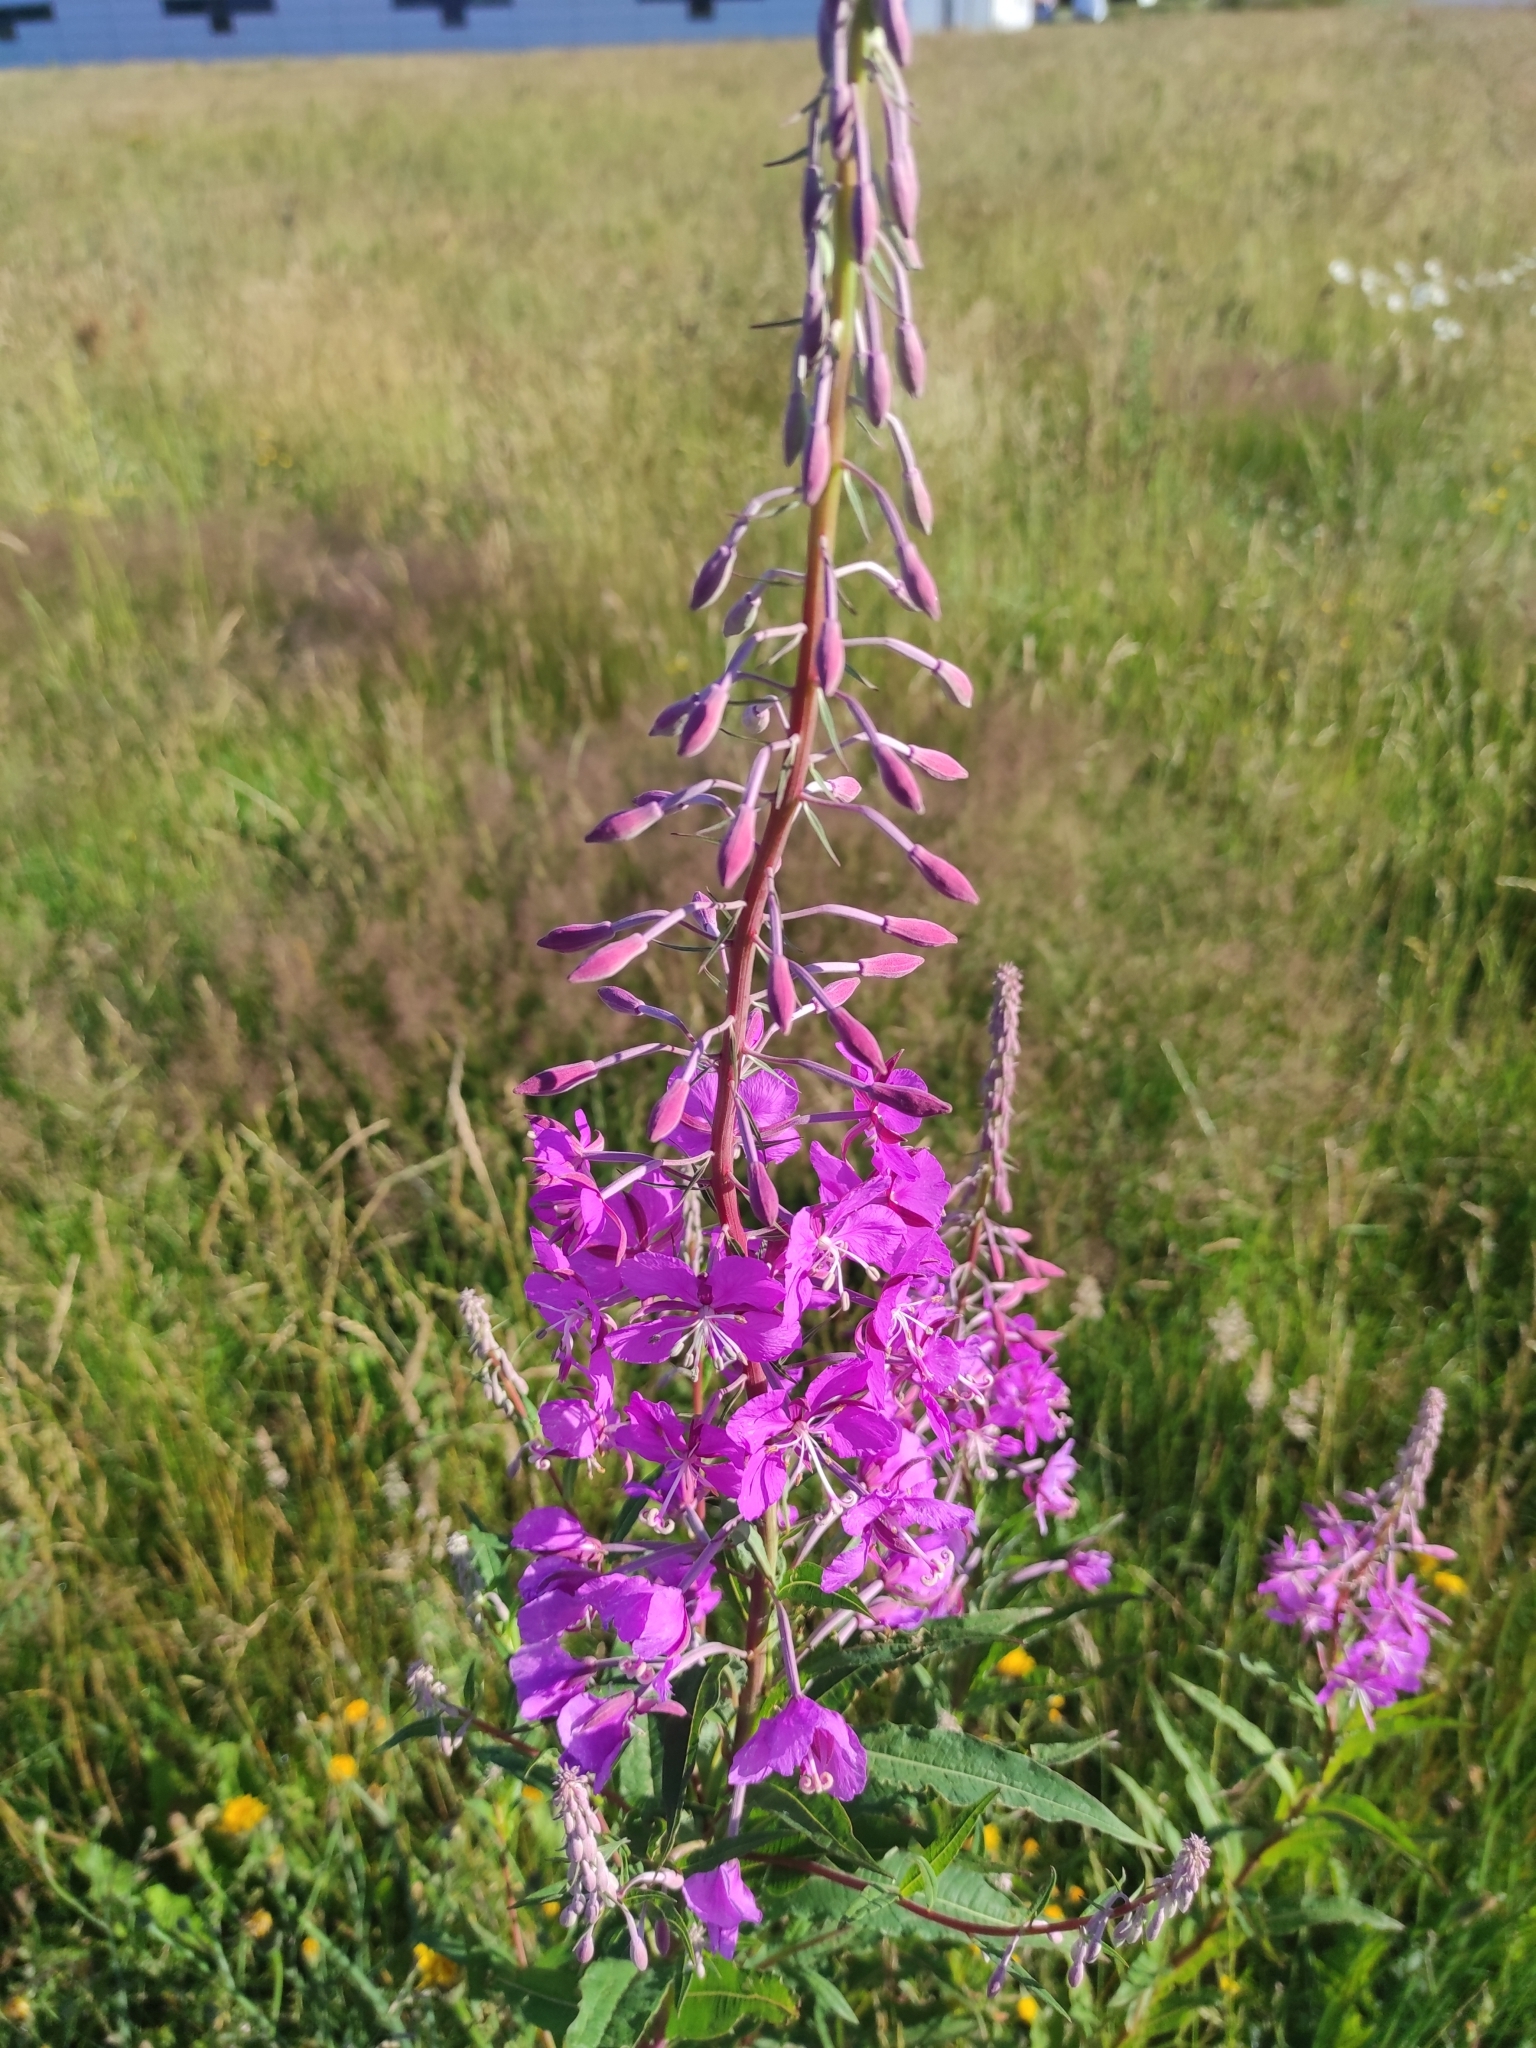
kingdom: Plantae
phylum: Tracheophyta
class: Magnoliopsida
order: Myrtales
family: Onagraceae
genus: Chamaenerion
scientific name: Chamaenerion angustifolium
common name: Fireweed
